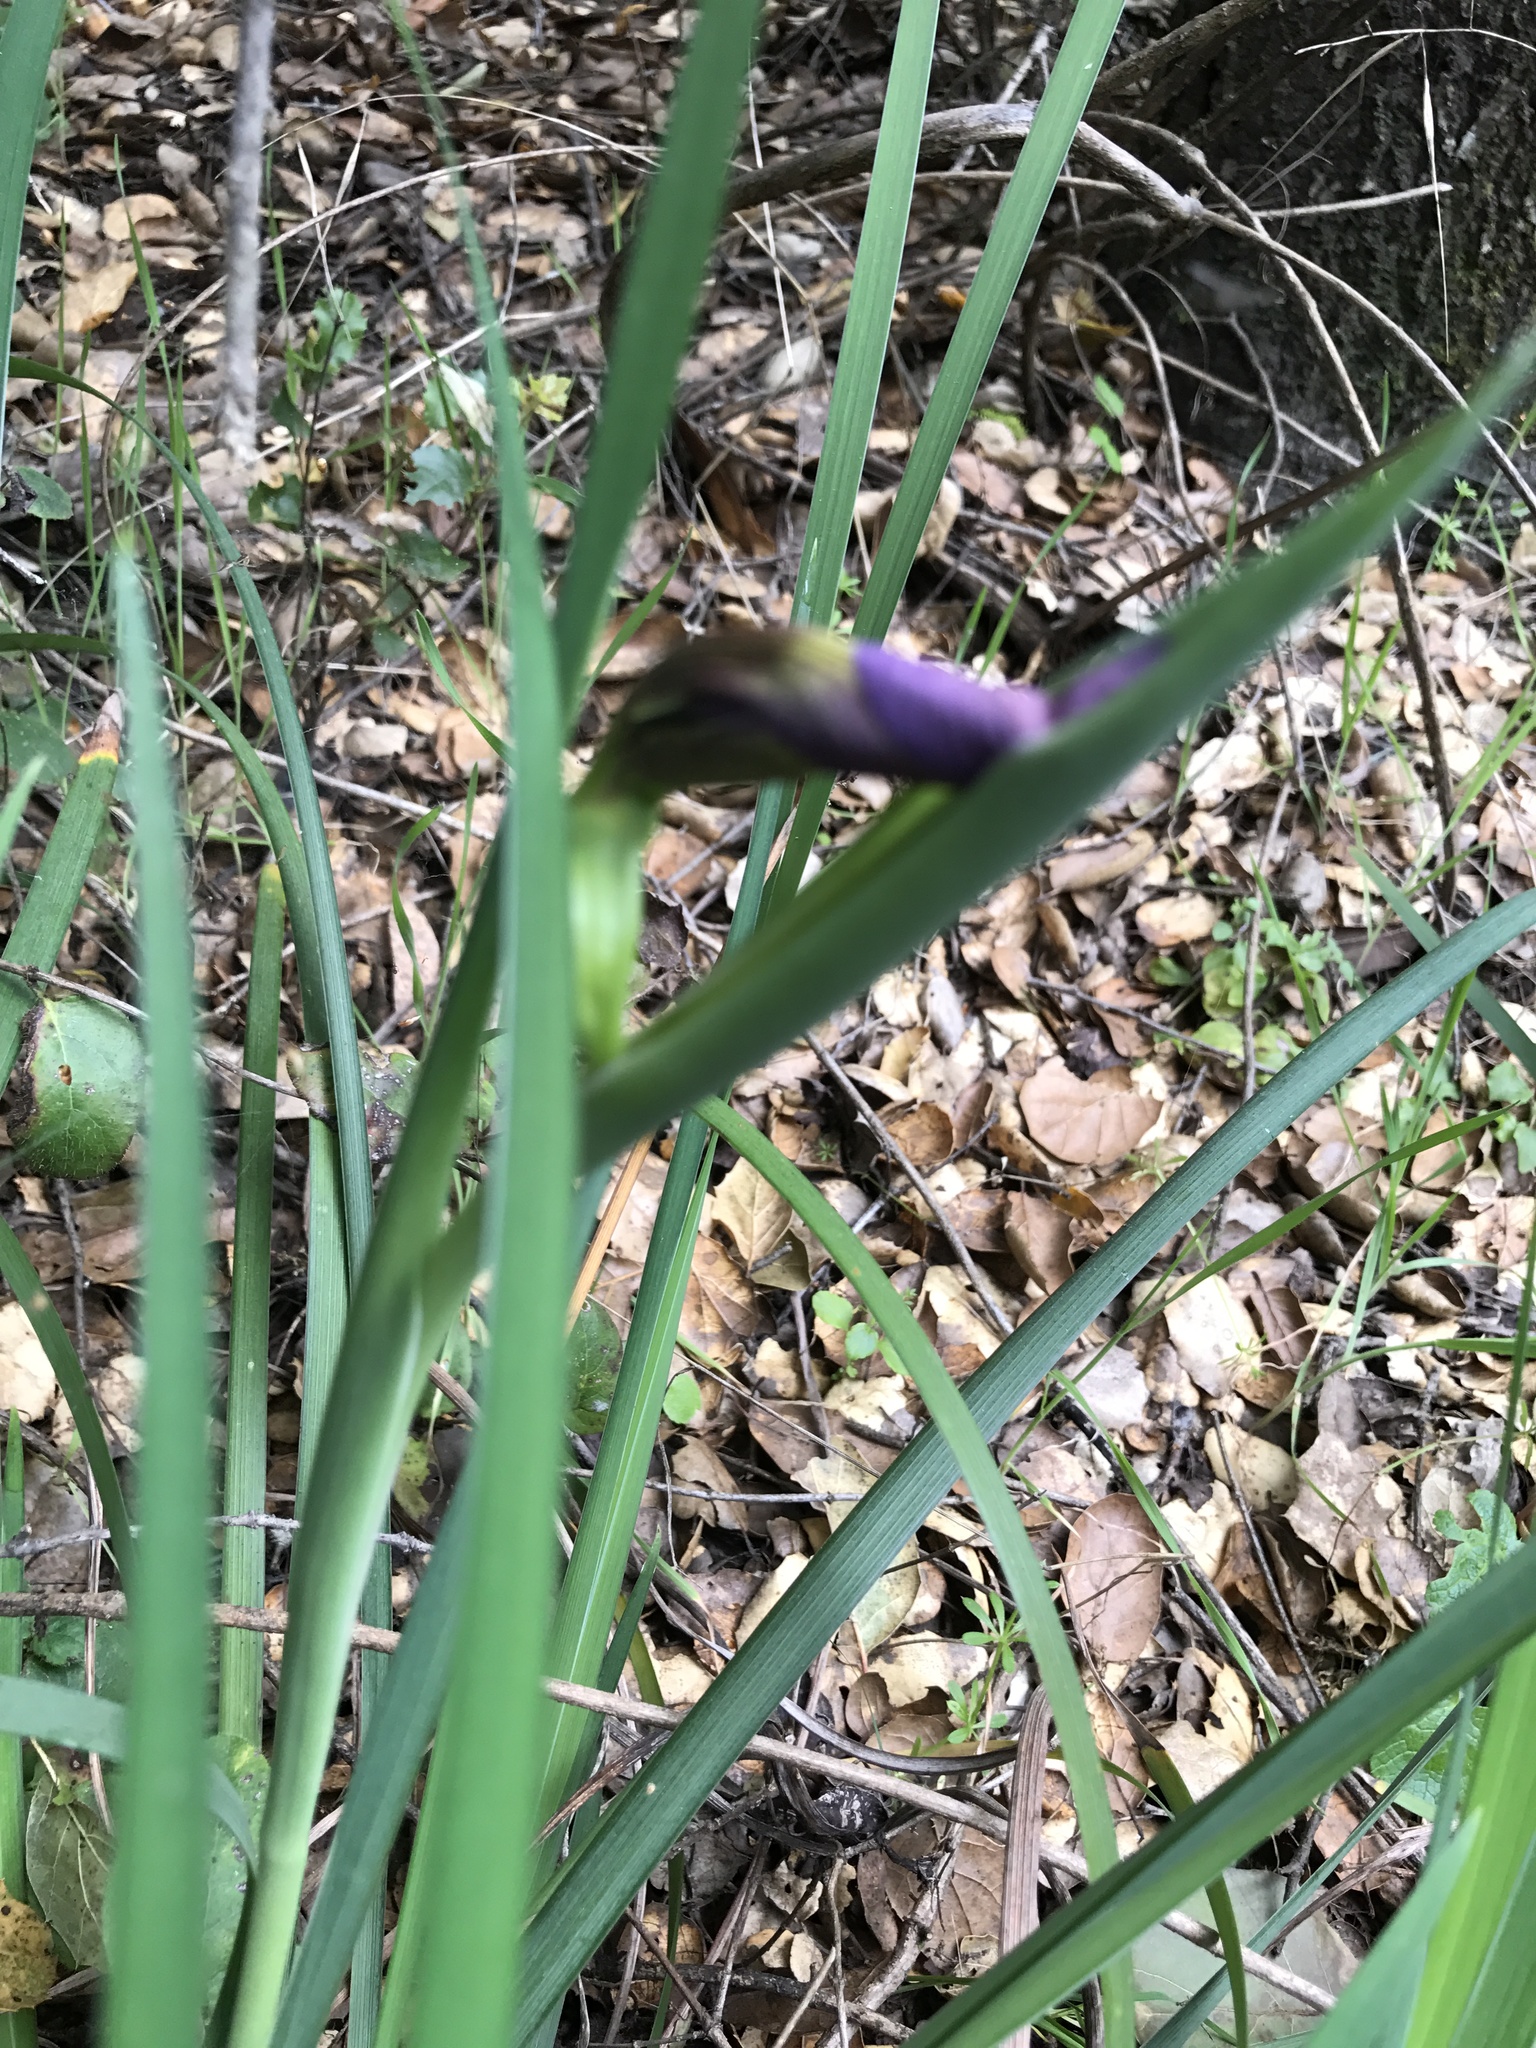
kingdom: Plantae
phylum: Tracheophyta
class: Liliopsida
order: Asparagales
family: Iridaceae
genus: Iris
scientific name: Iris douglasiana
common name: Marin iris
